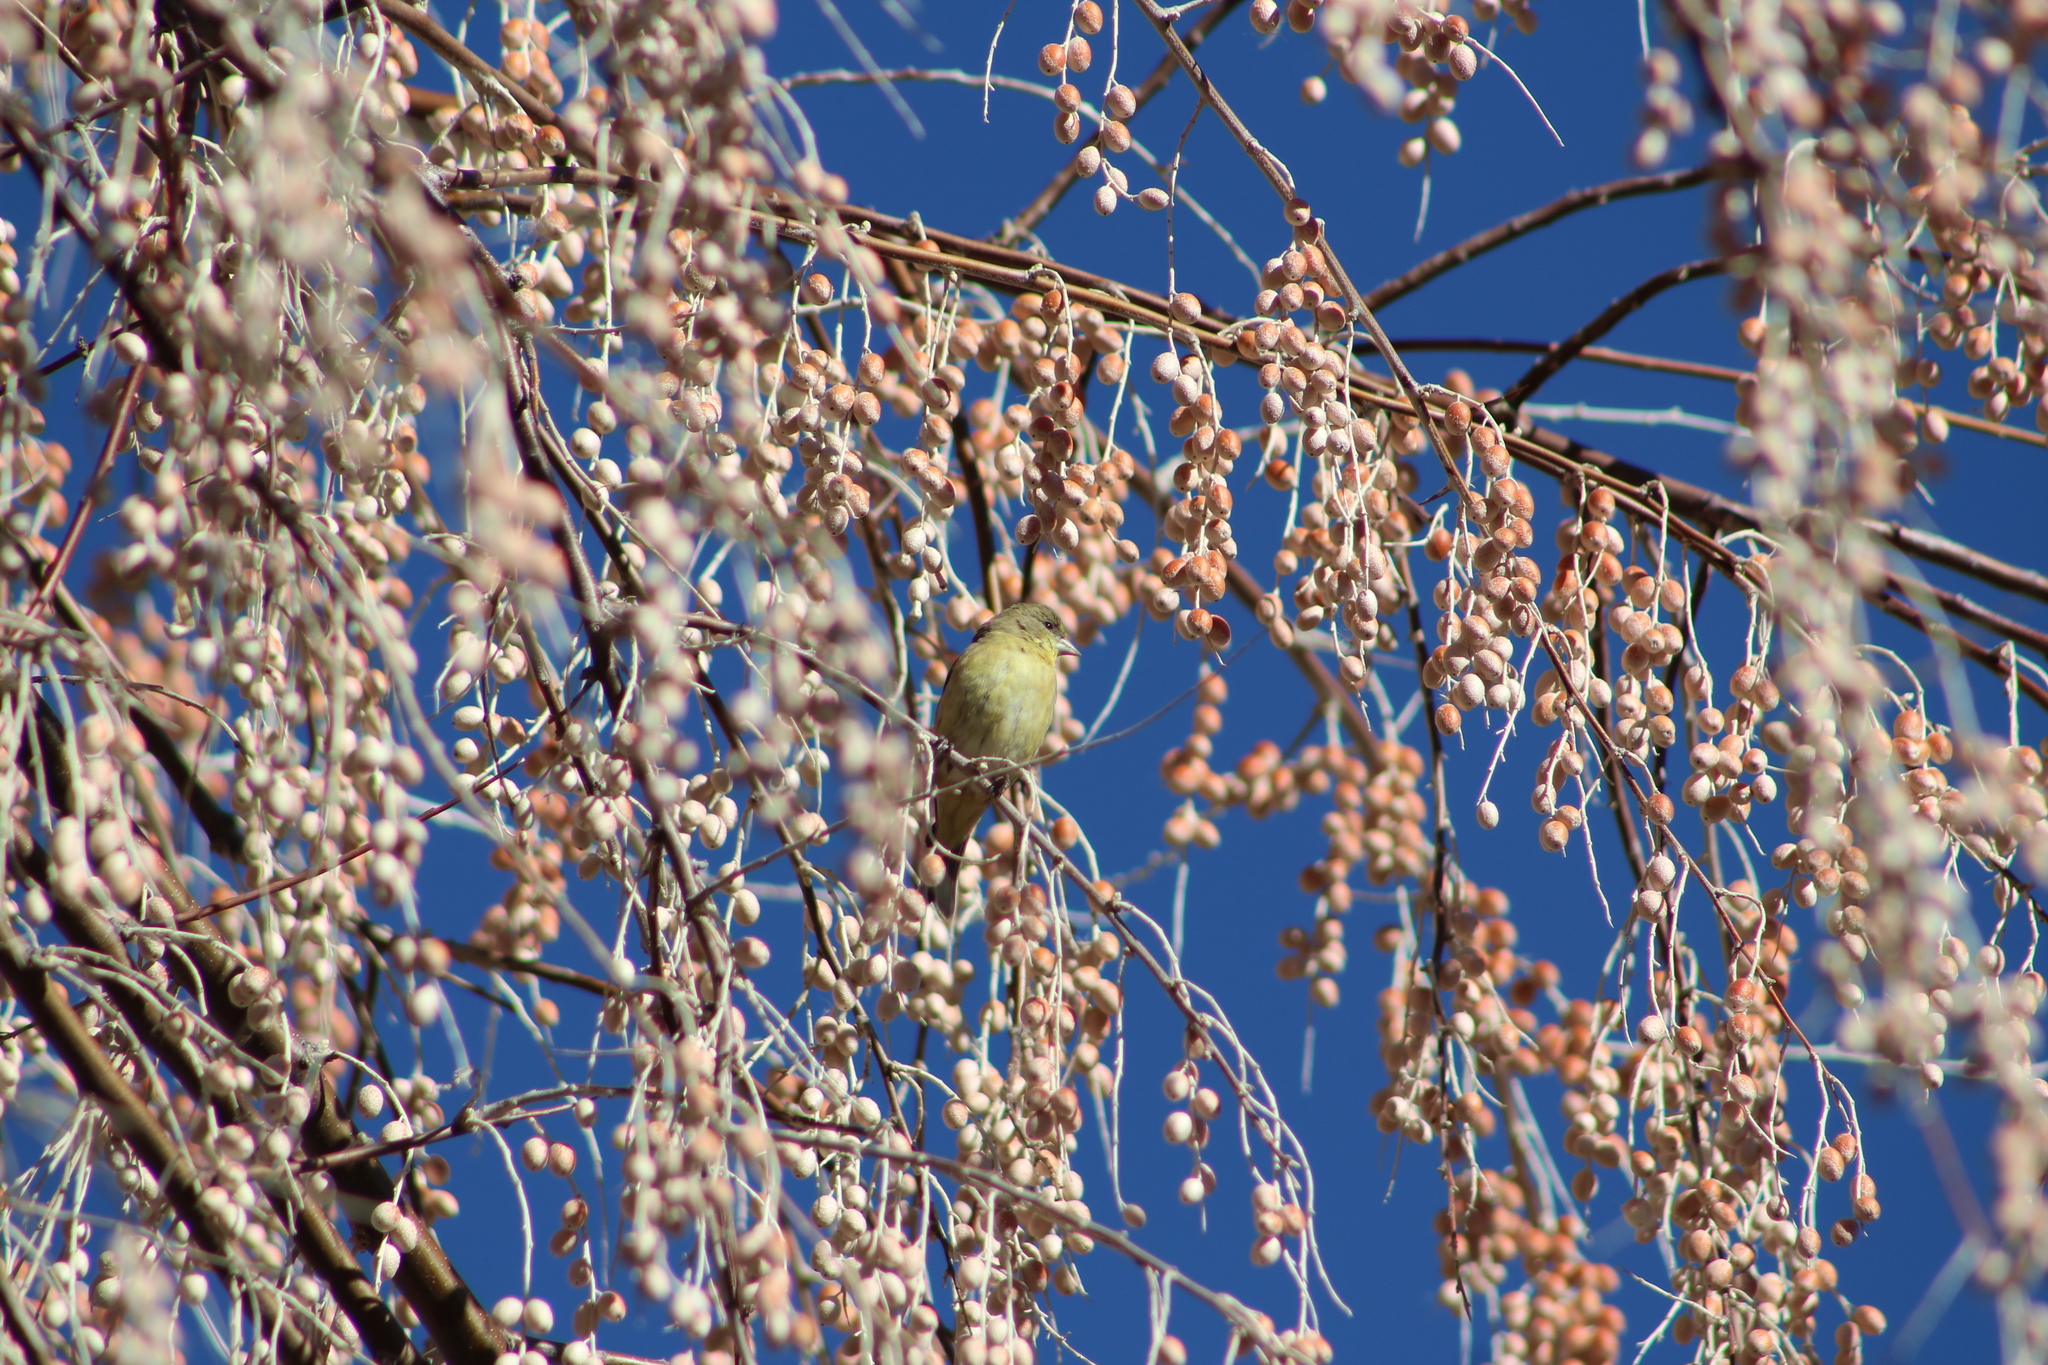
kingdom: Animalia
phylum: Chordata
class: Aves
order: Passeriformes
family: Fringillidae
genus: Spinus
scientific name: Spinus psaltria
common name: Lesser goldfinch
